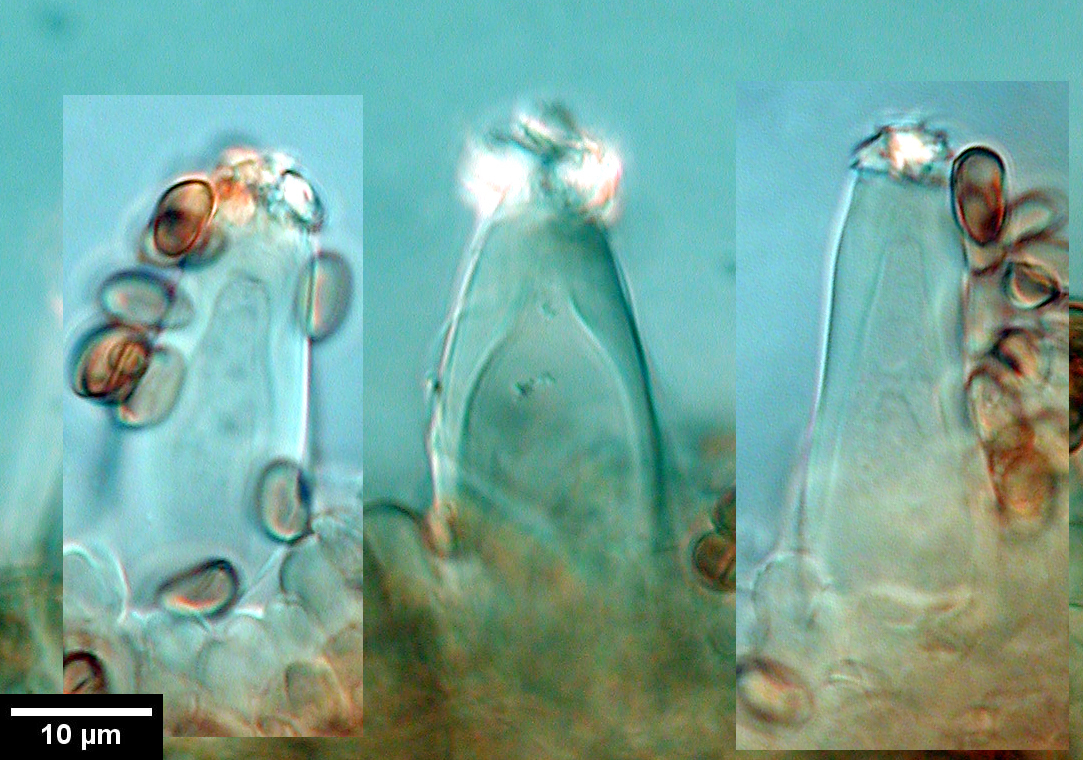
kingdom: Fungi
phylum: Basidiomycota
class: Agaricomycetes
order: Agaricales
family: Inocybaceae
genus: Inocybe
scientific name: Inocybe densipruinosa
